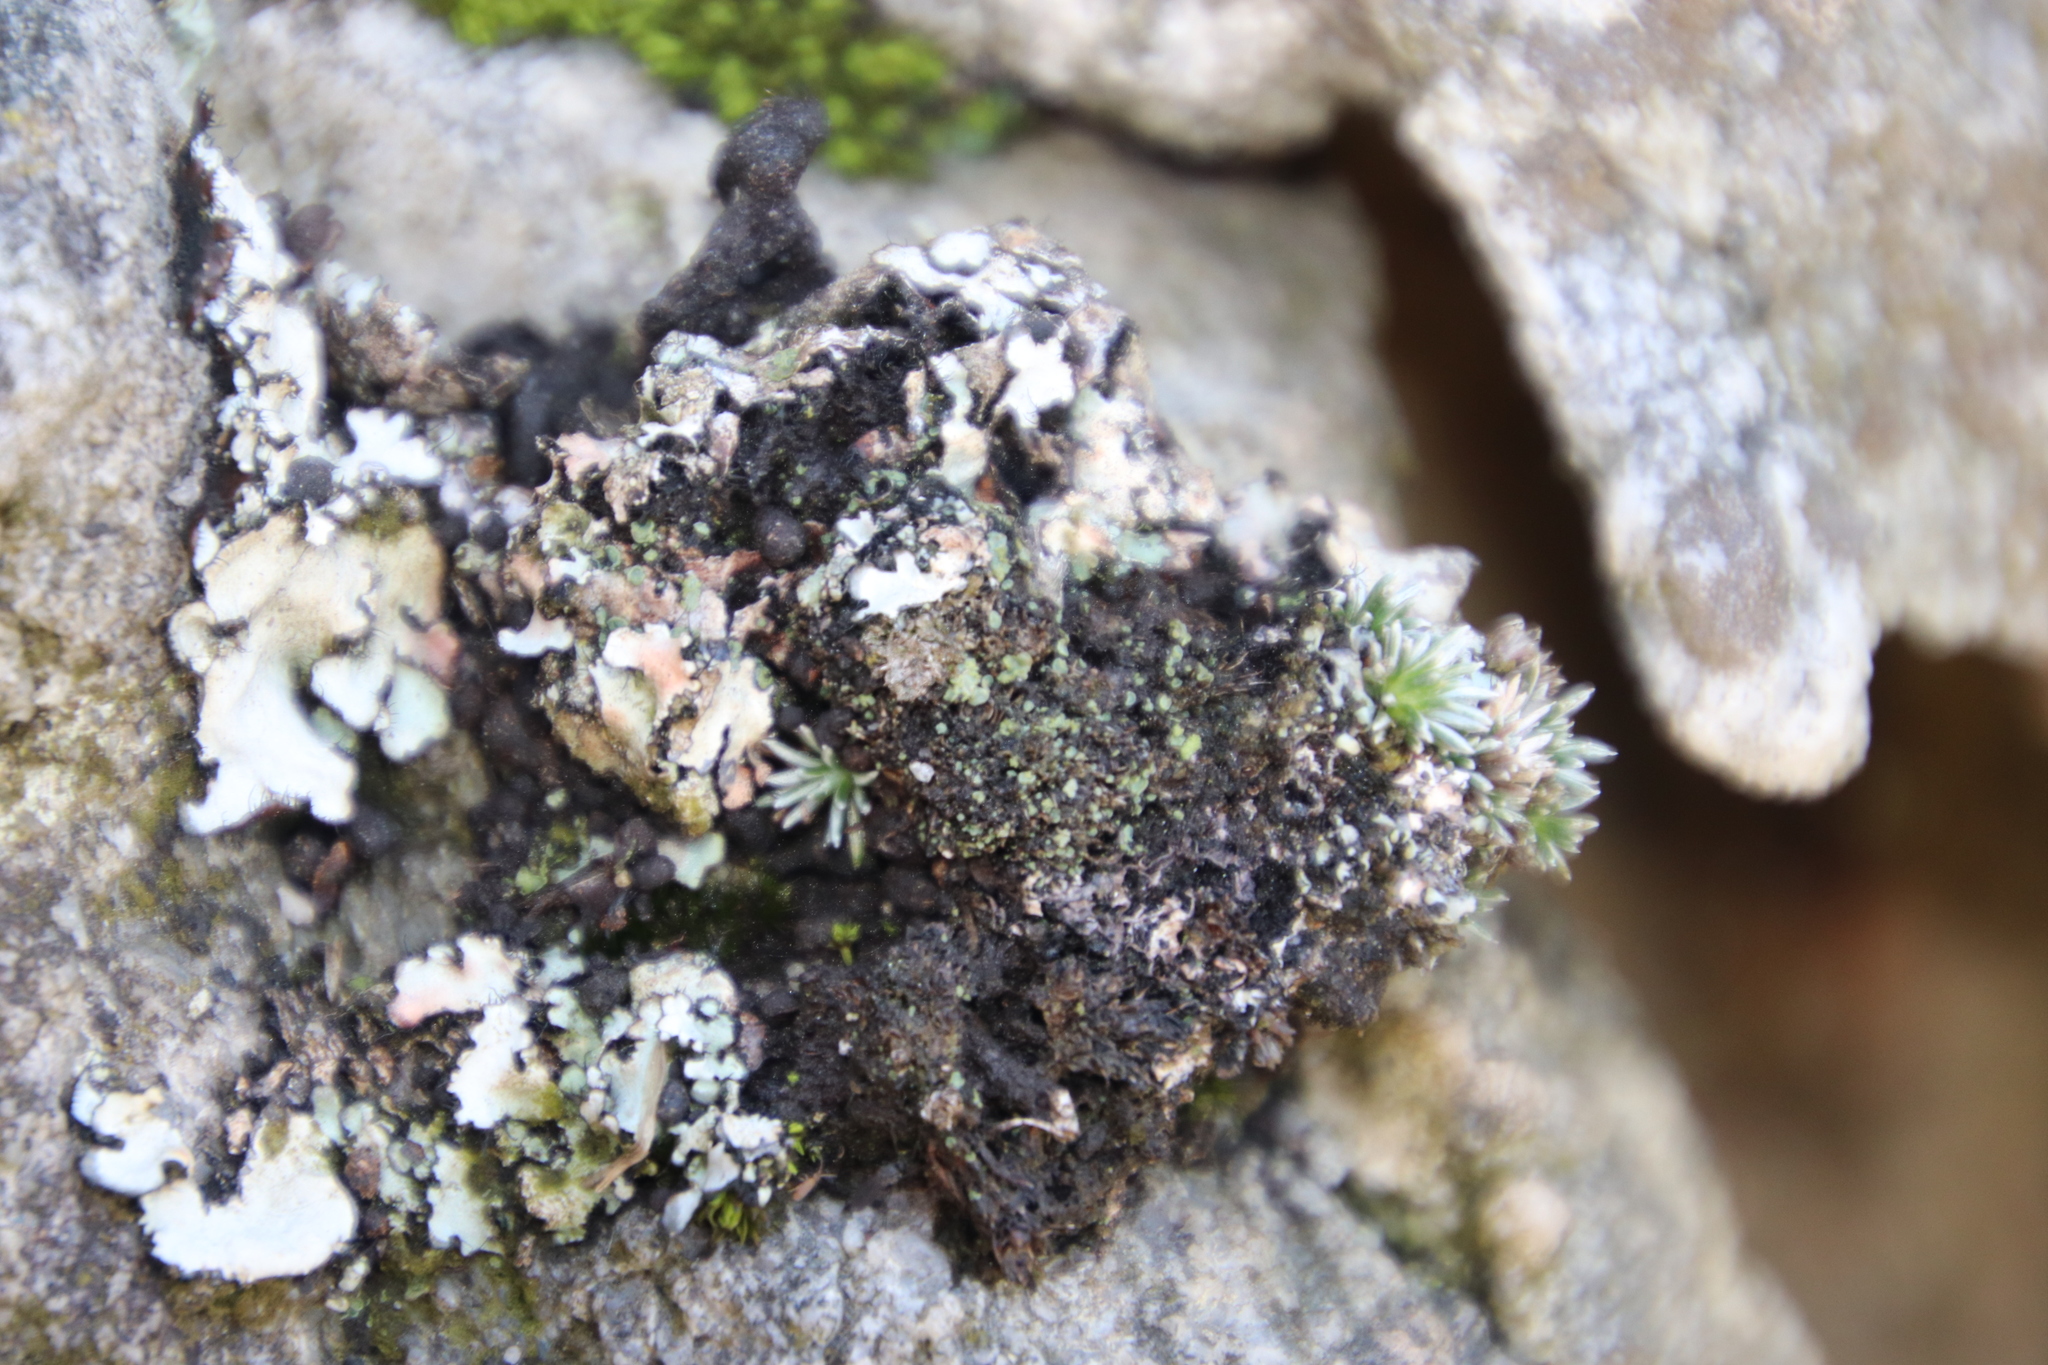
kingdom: Plantae
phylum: Tracheophyta
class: Magnoliopsida
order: Asterales
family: Asteraceae
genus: Muscosomorphe
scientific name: Muscosomorphe aretioides
